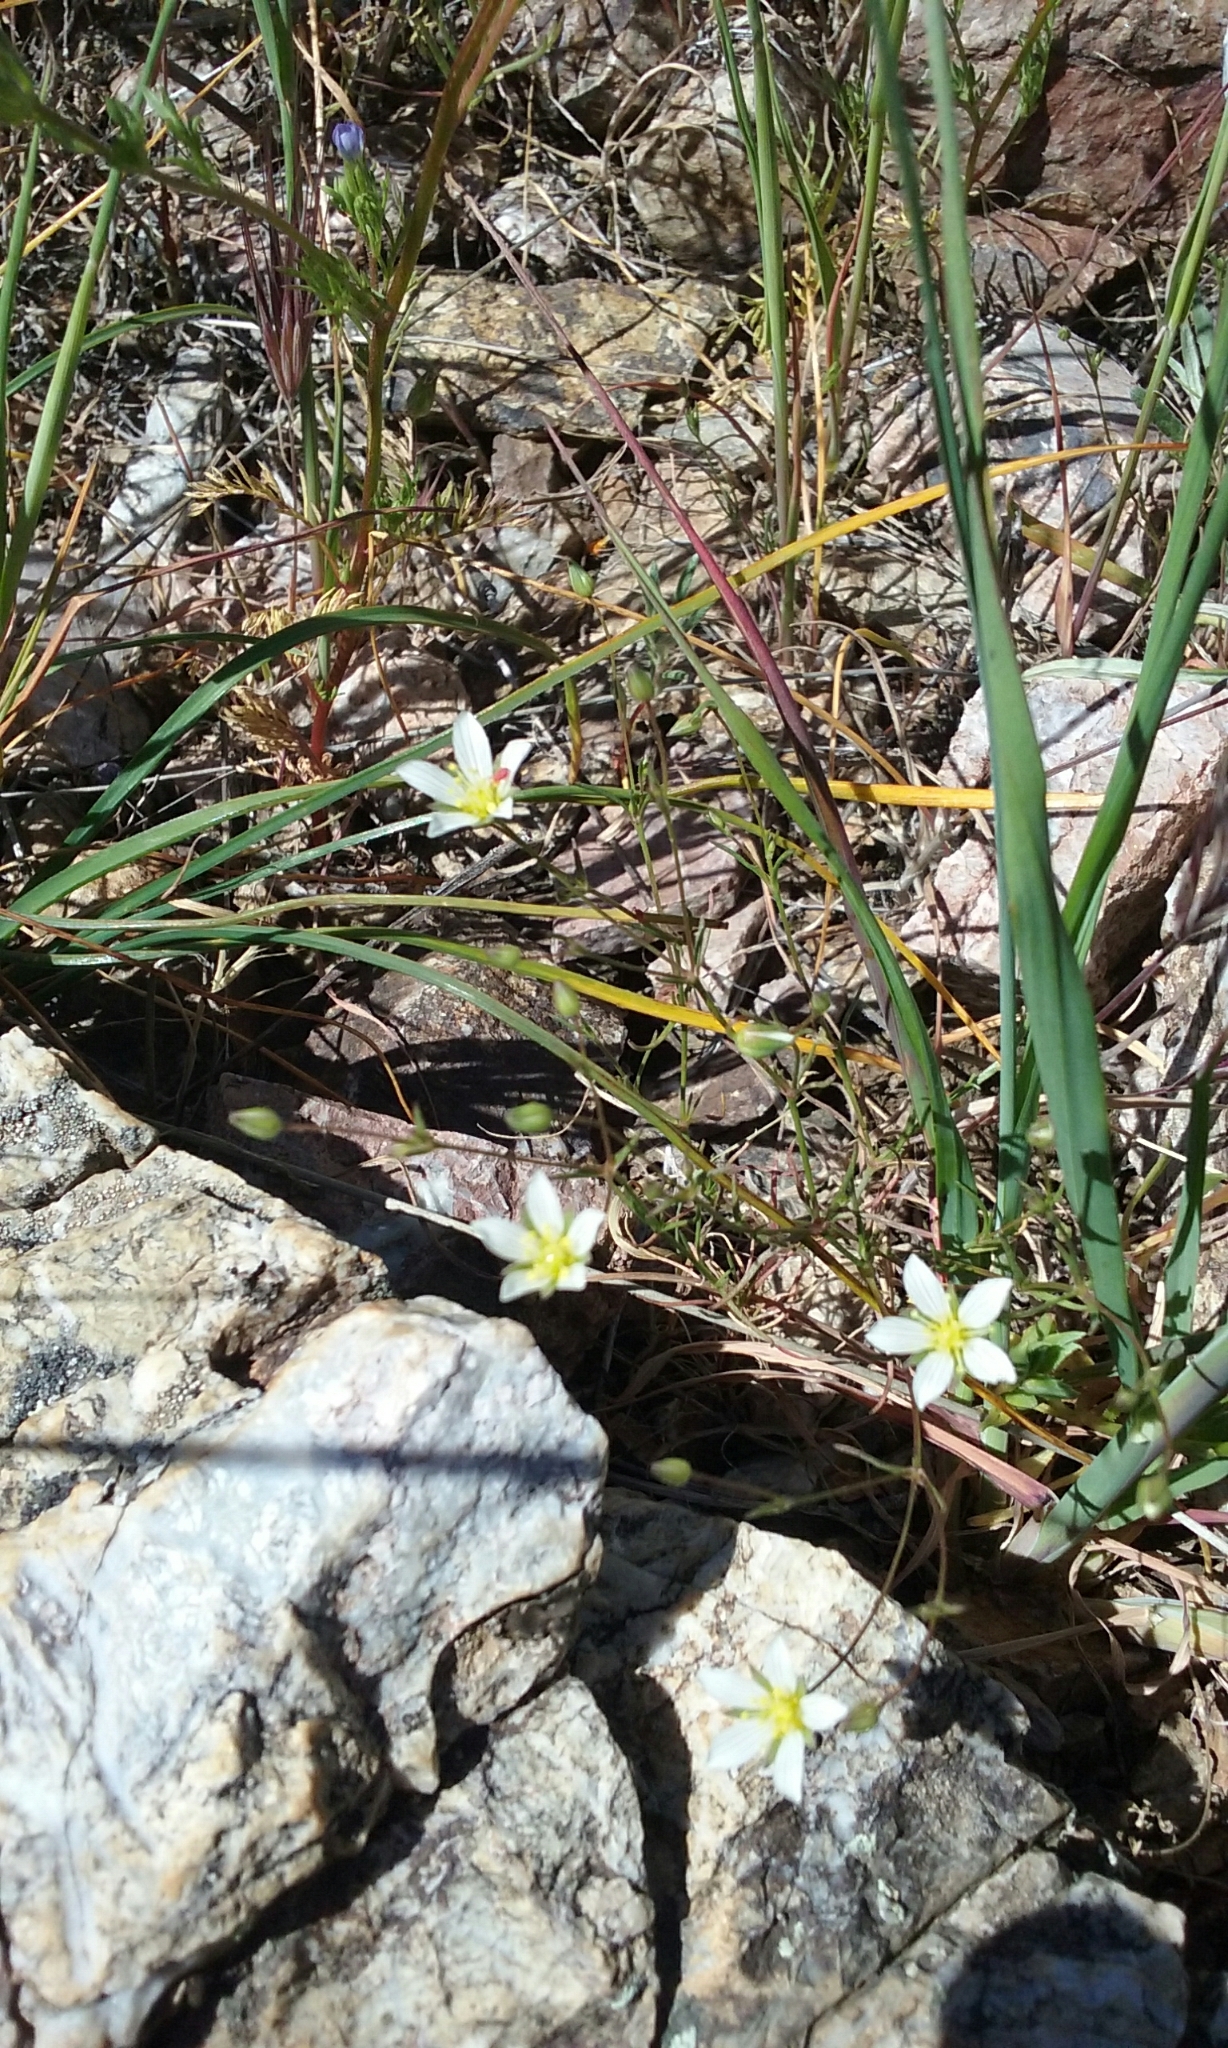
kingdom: Plantae
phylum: Tracheophyta
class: Magnoliopsida
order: Caryophyllales
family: Caryophyllaceae
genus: Sabulina
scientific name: Sabulina douglasii
